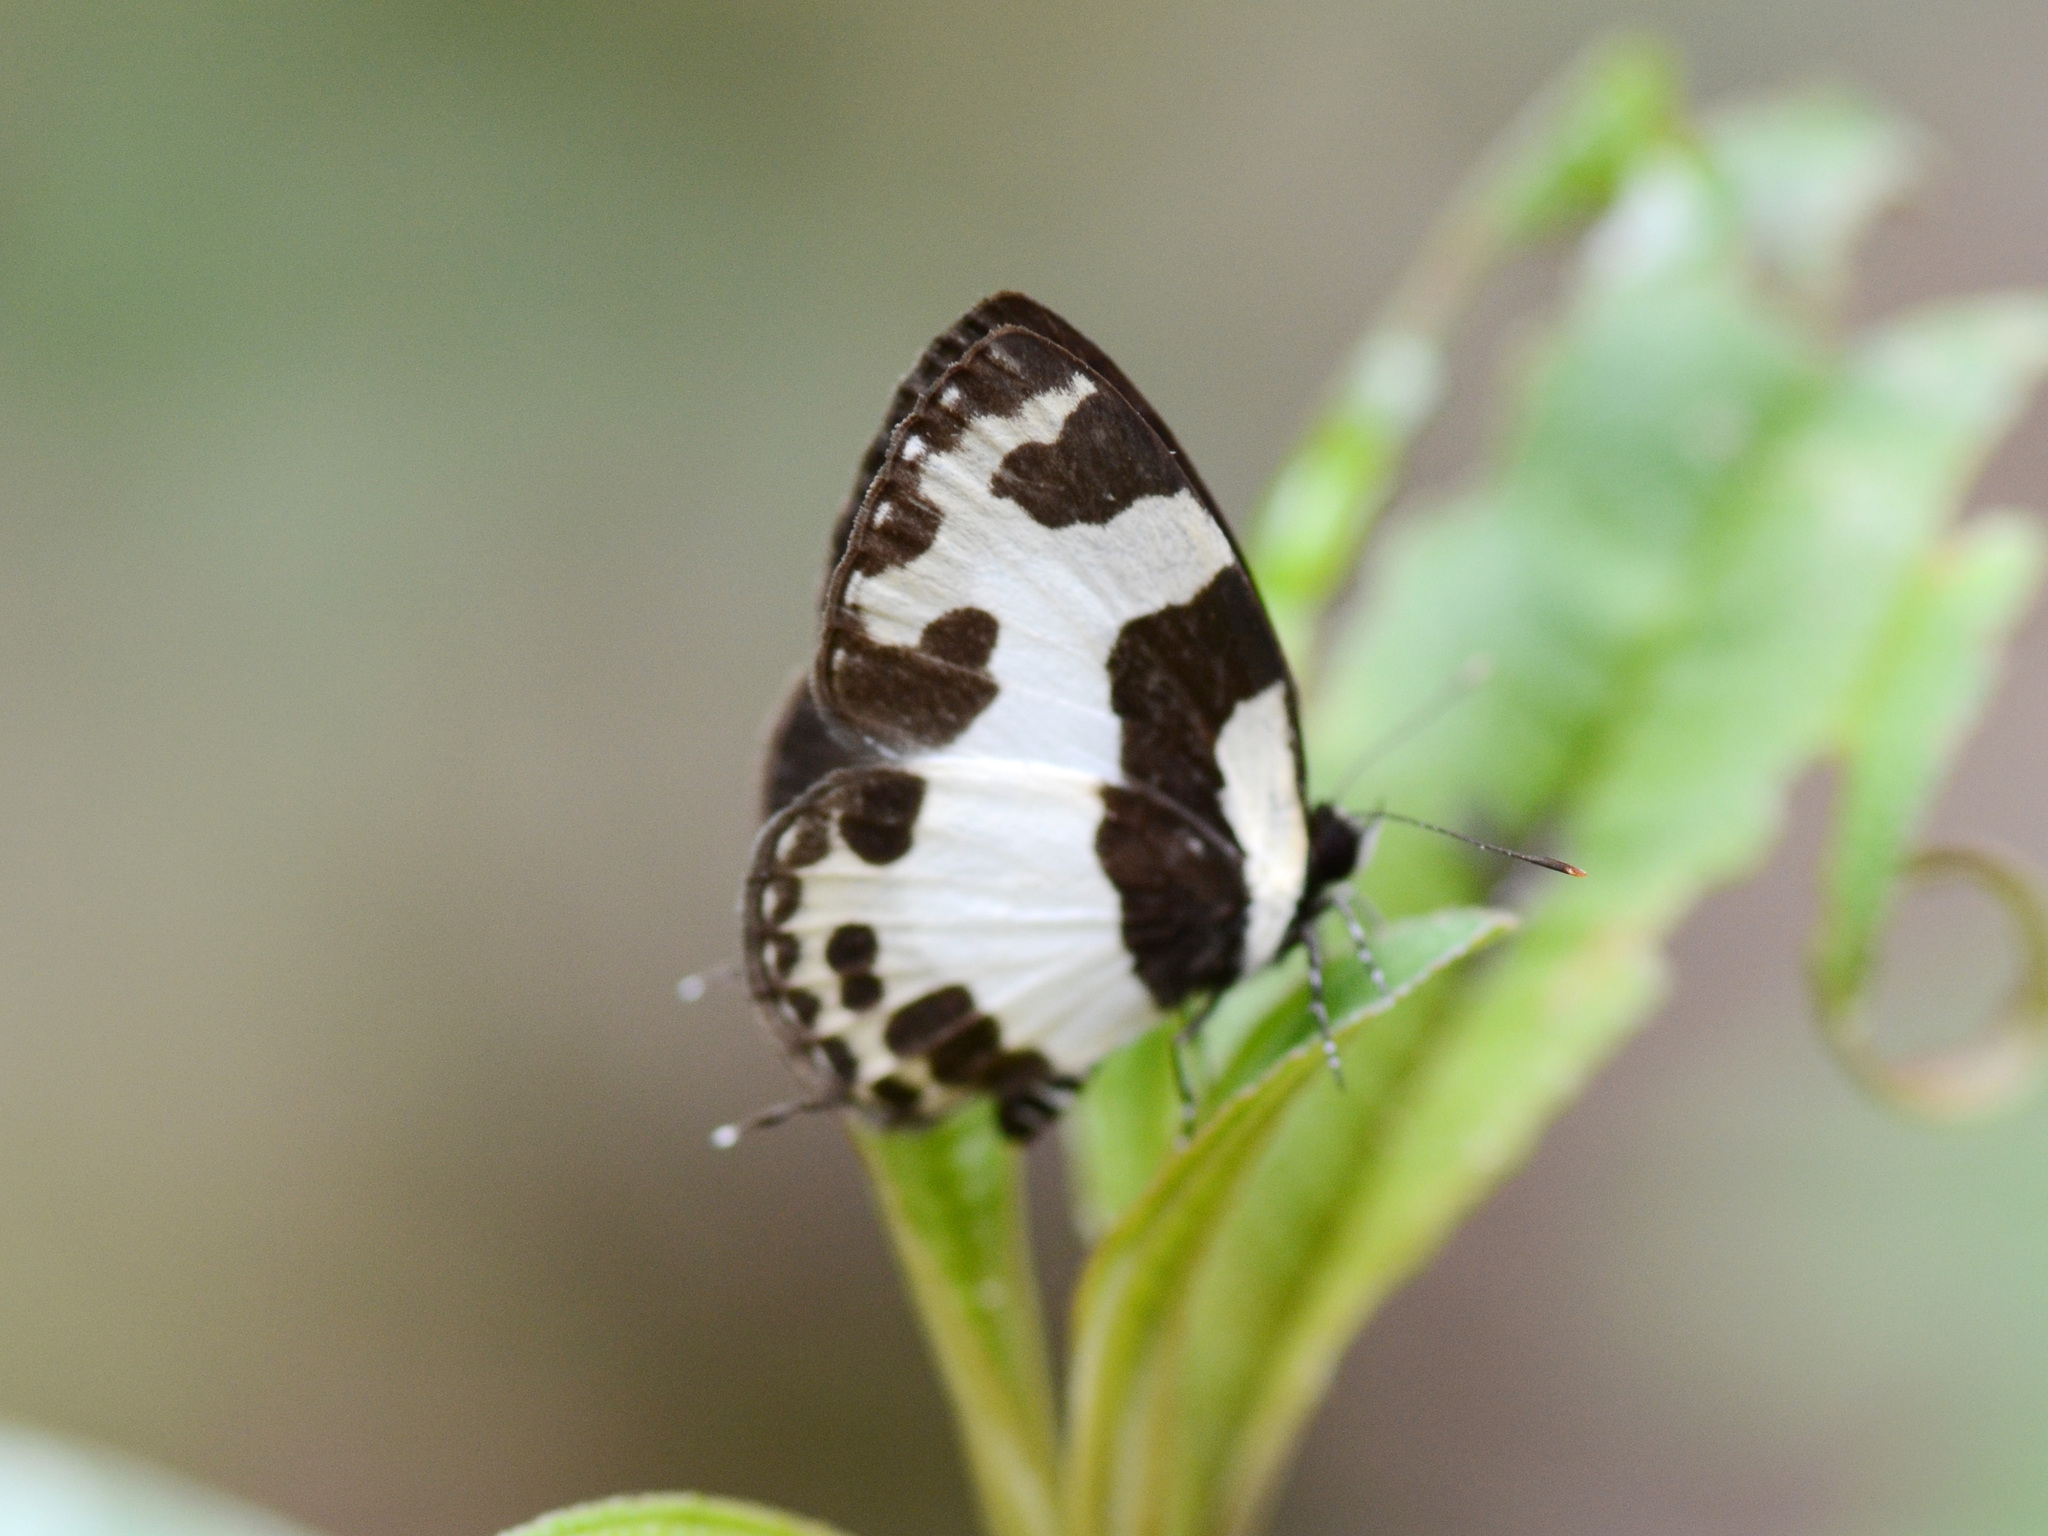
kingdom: Animalia
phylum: Arthropoda
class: Insecta
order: Lepidoptera
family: Lycaenidae
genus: Caleta
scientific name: Caleta elna
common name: Elbowed pierrot
